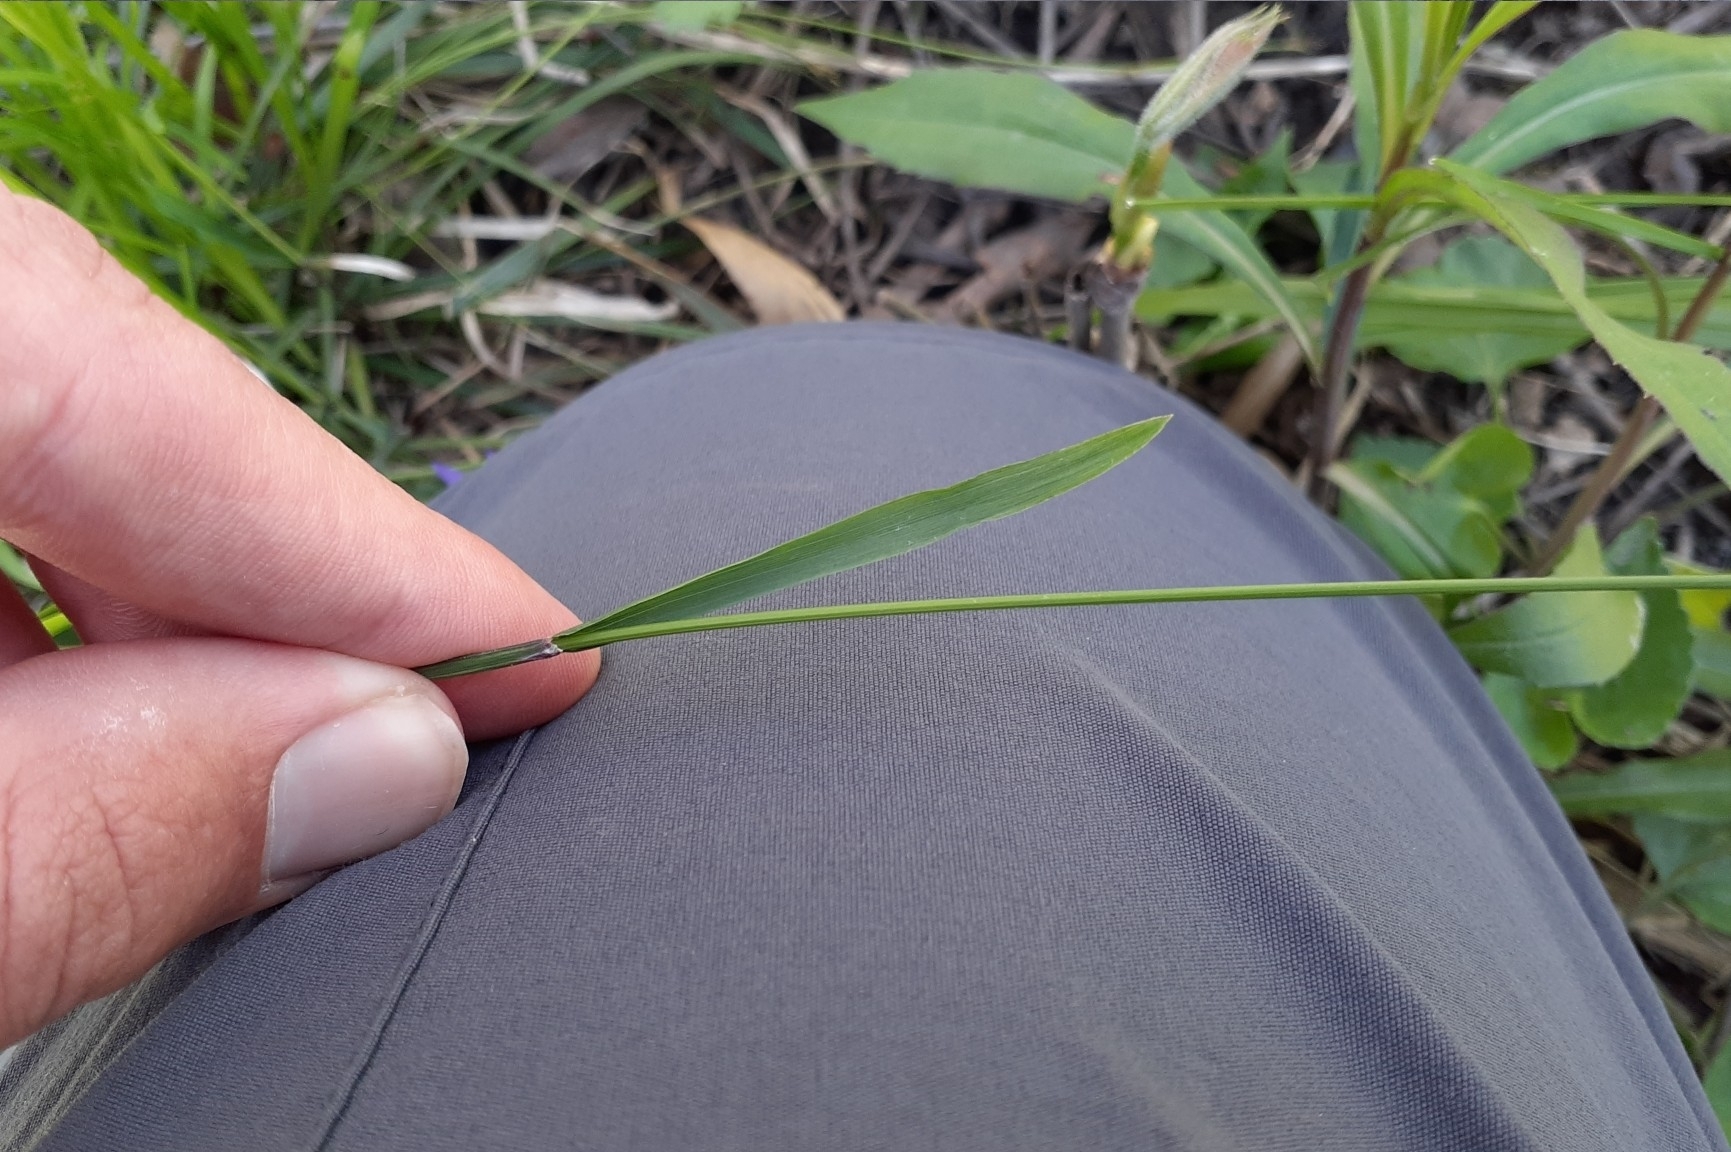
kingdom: Plantae
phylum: Tracheophyta
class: Liliopsida
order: Poales
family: Poaceae
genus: Schizachne
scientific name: Schizachne purpurascens
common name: False melic
